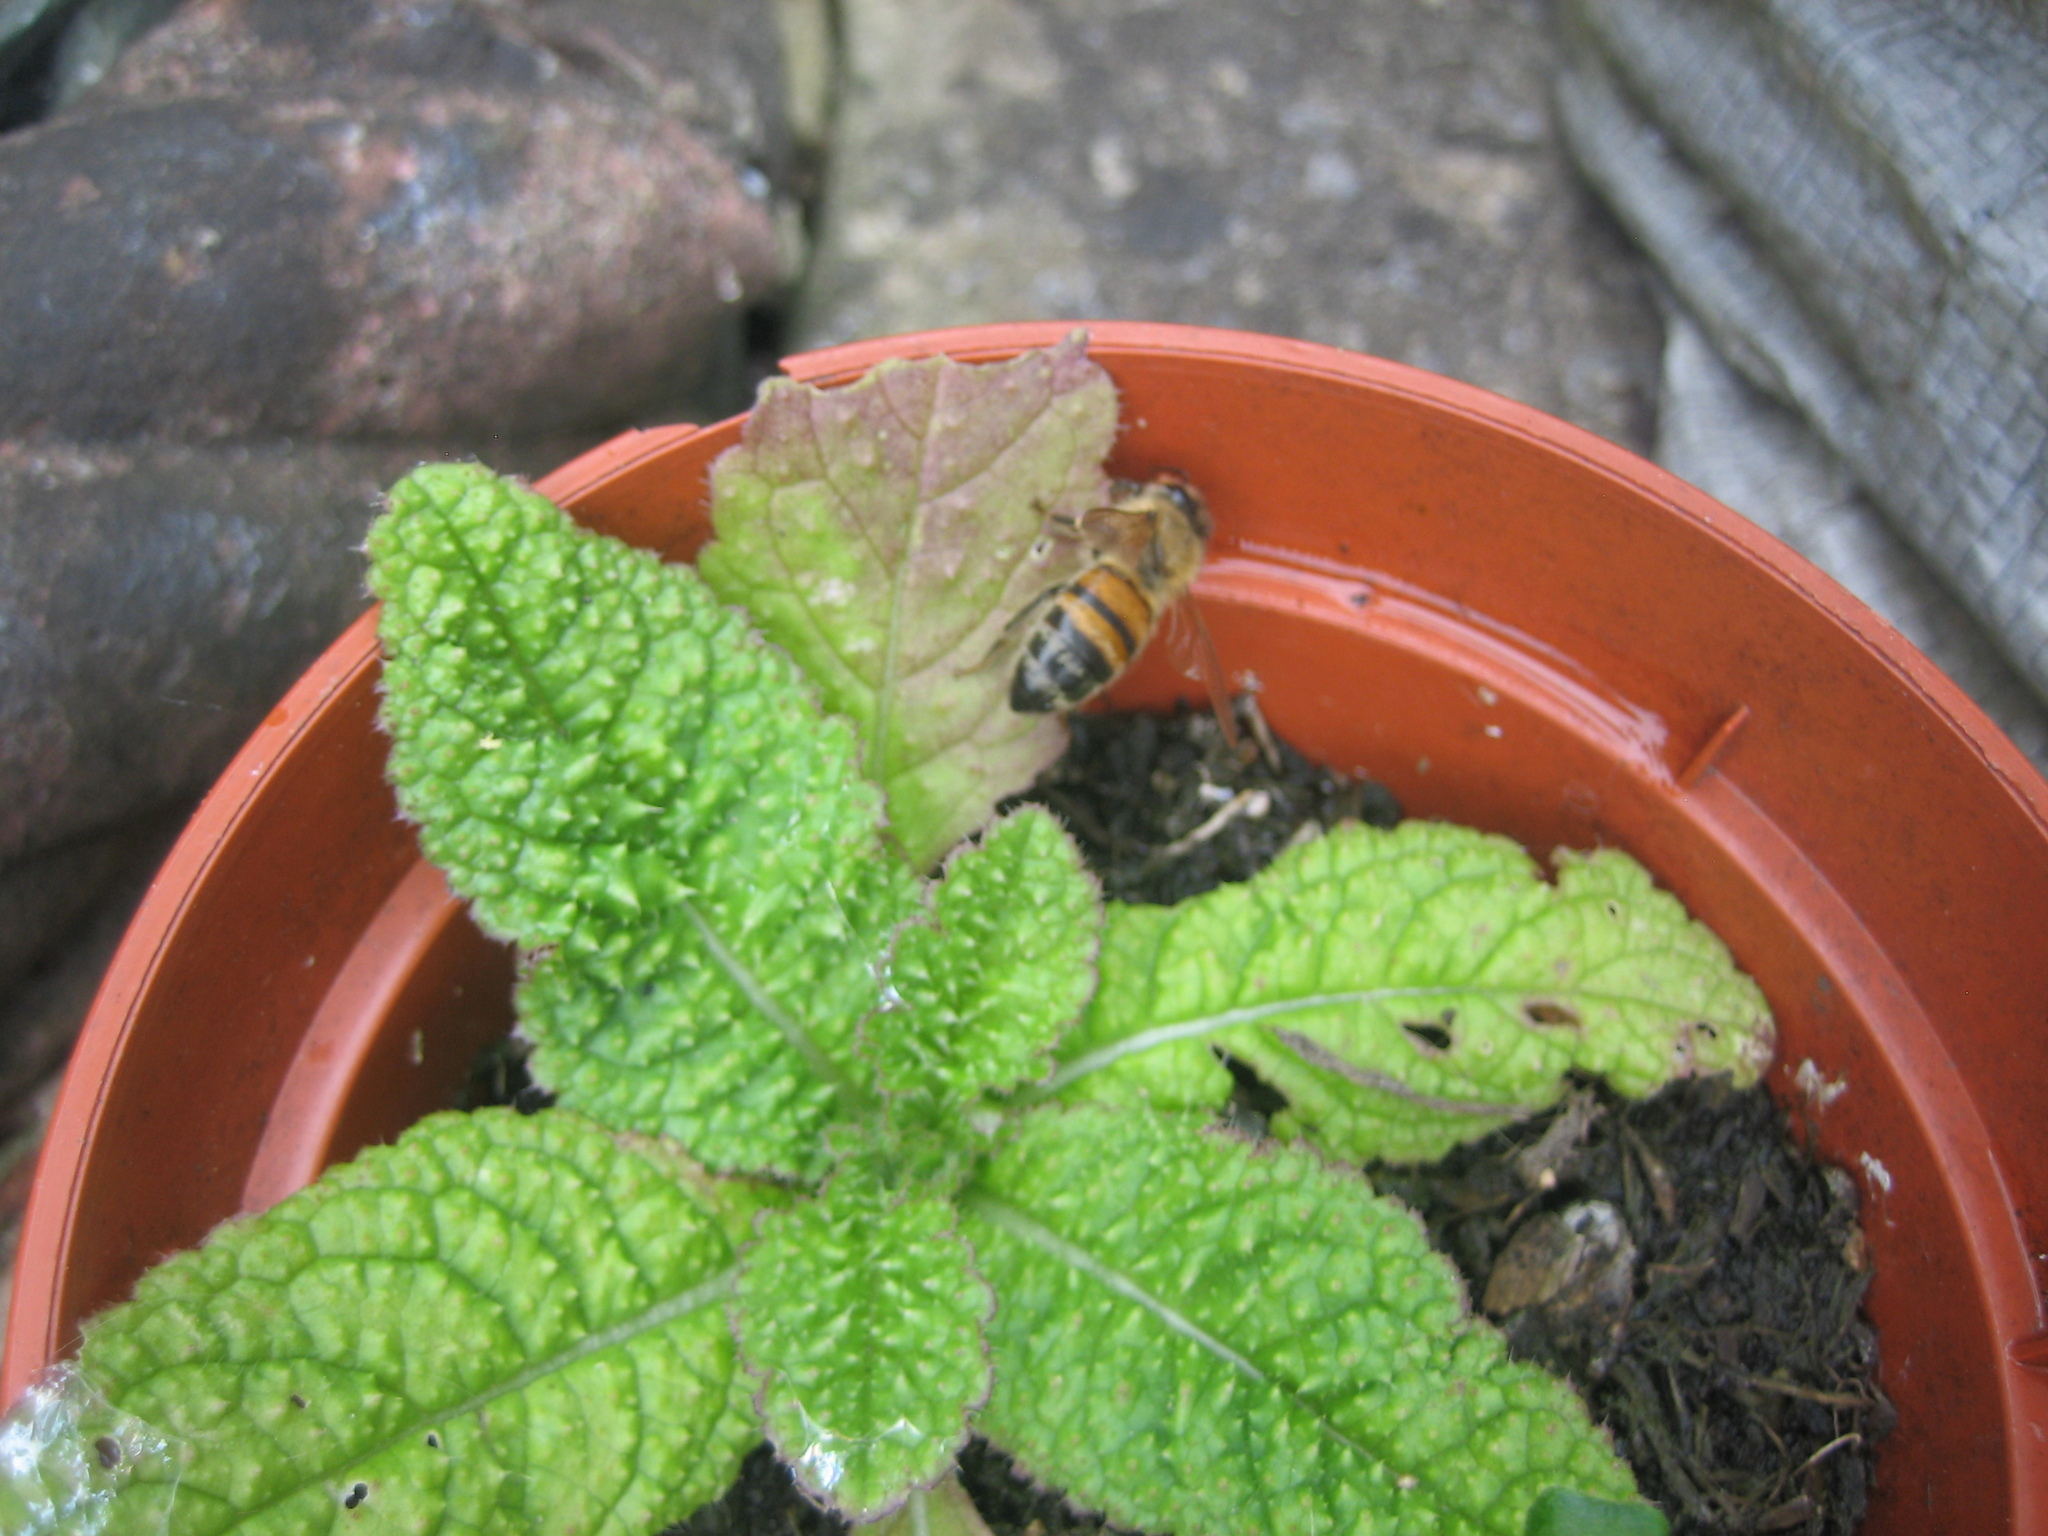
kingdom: Animalia
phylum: Arthropoda
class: Insecta
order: Hymenoptera
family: Apidae
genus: Apis
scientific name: Apis mellifera
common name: Honey bee
